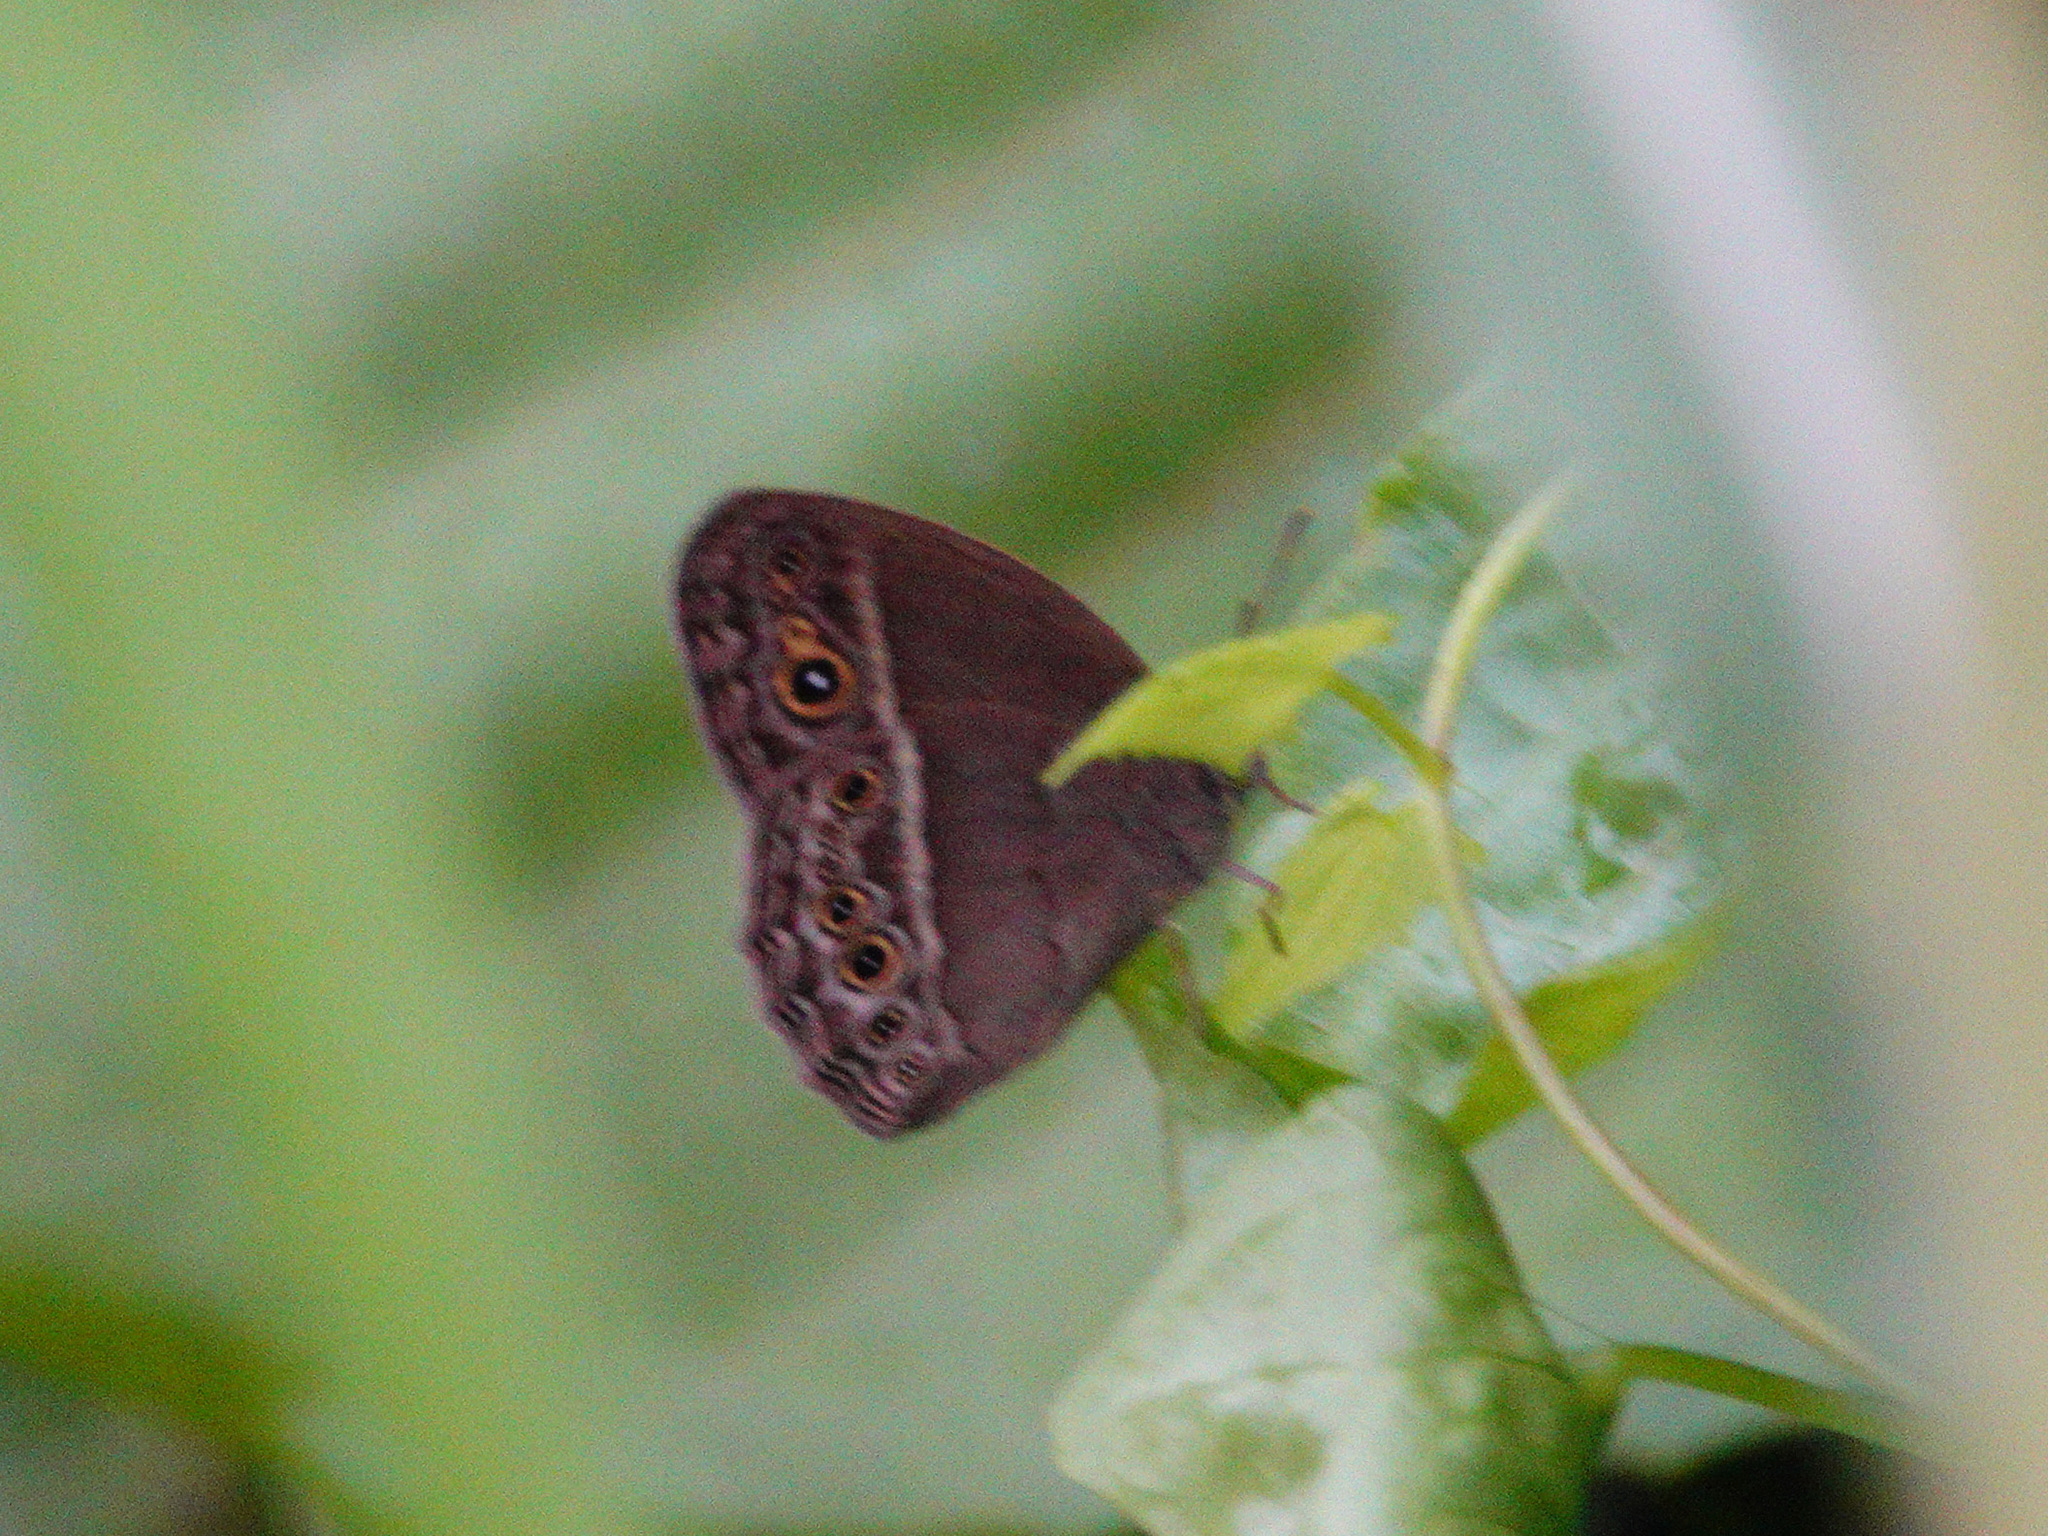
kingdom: Animalia
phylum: Arthropoda
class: Insecta
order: Lepidoptera
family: Nymphalidae
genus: Mycalesis
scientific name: Mycalesis perseoides
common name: Burmese bushbrown
